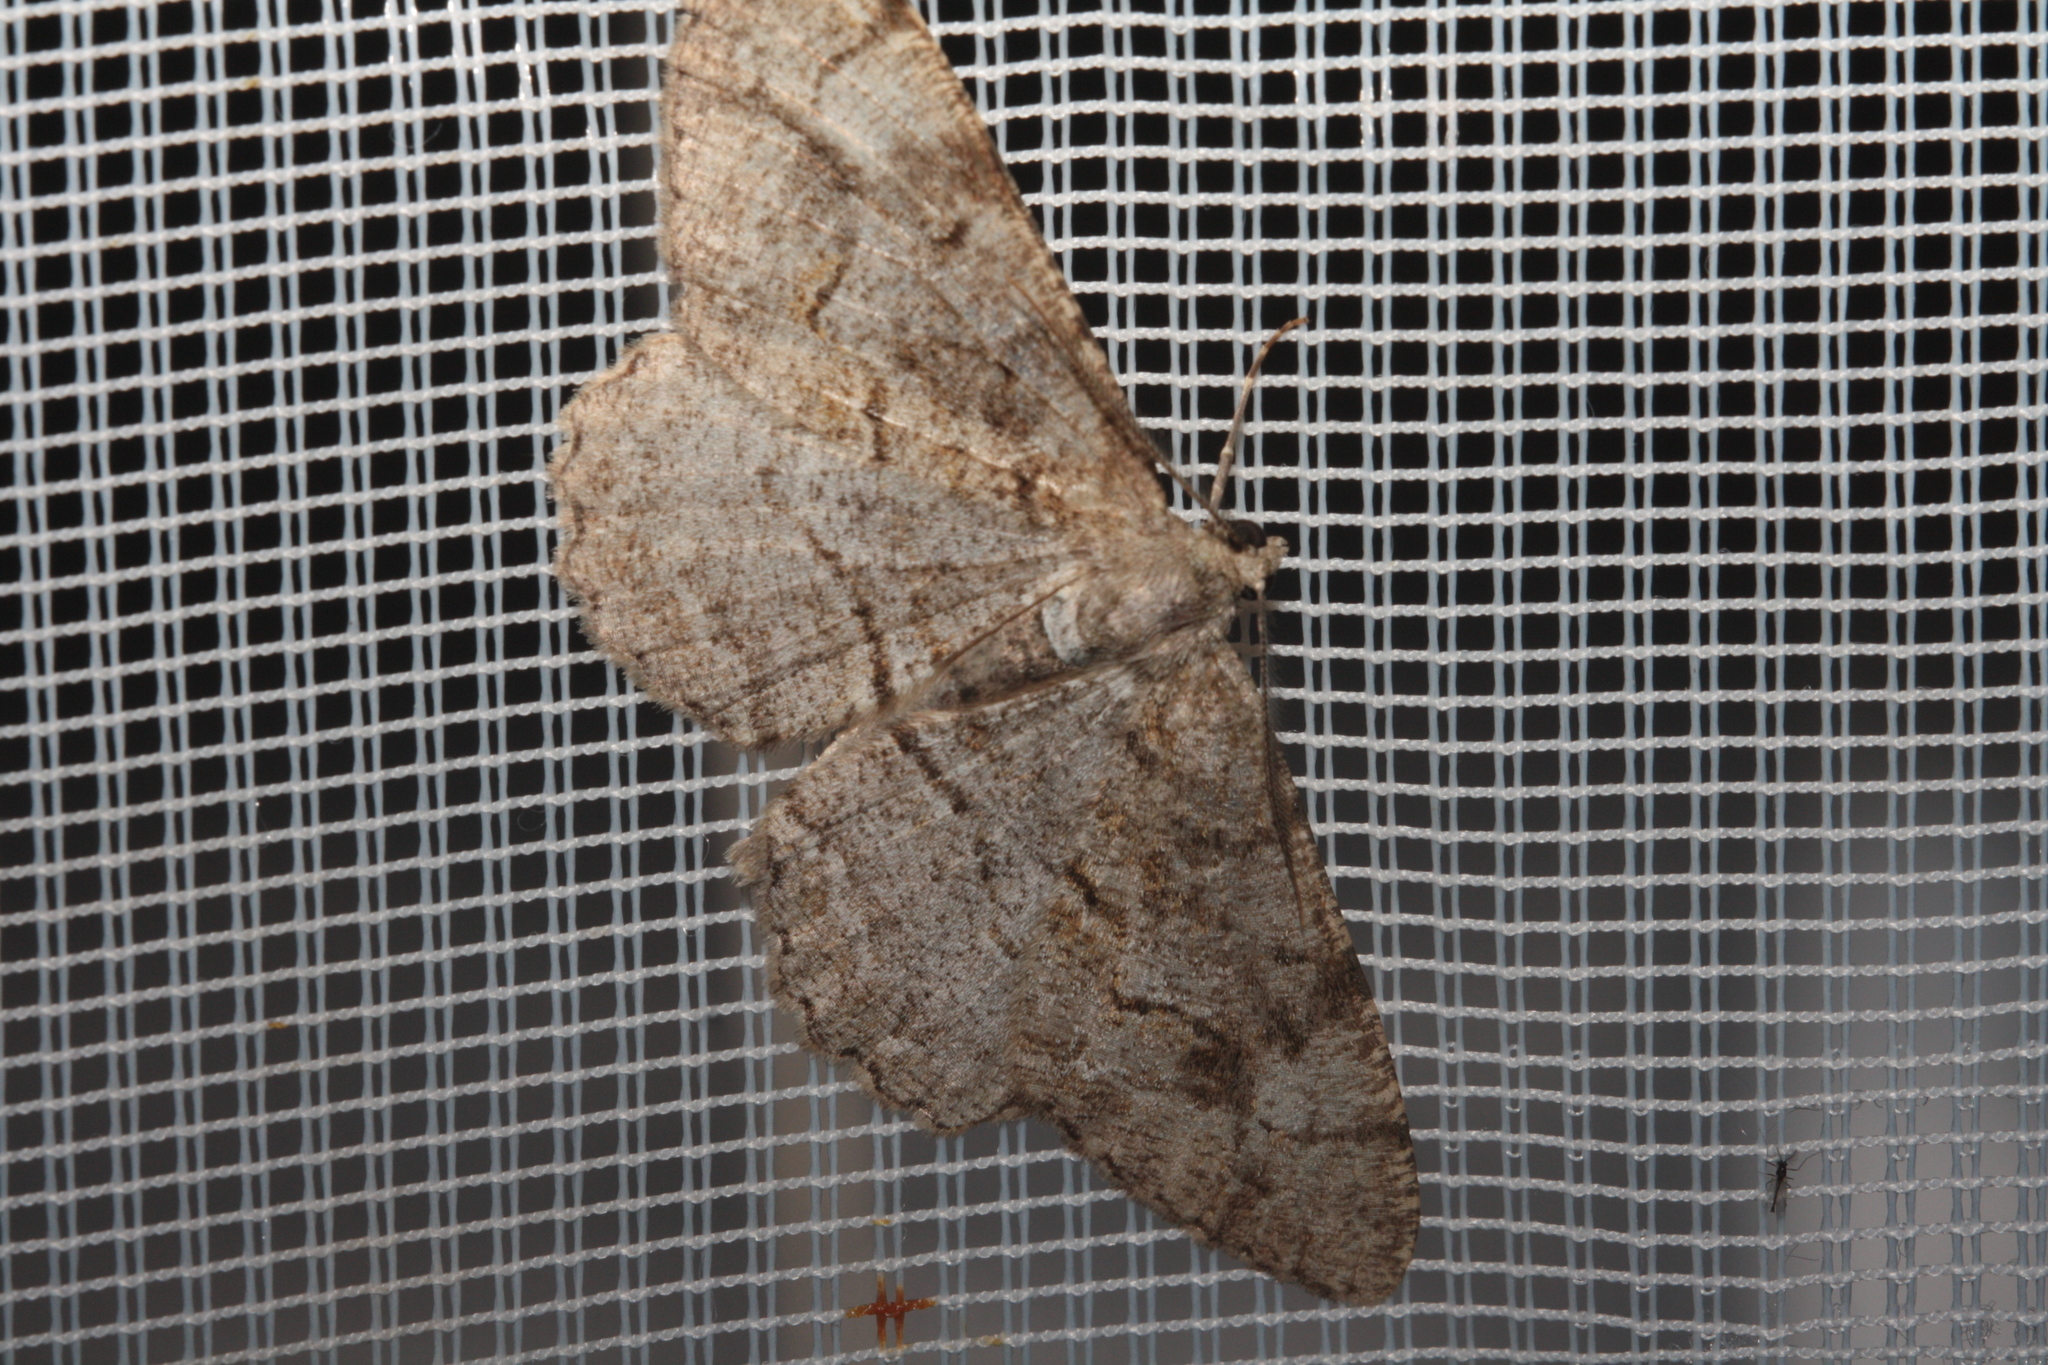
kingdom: Animalia
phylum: Arthropoda
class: Insecta
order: Lepidoptera
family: Geometridae
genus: Alcis
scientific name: Alcis repandata
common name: Mottled beauty
